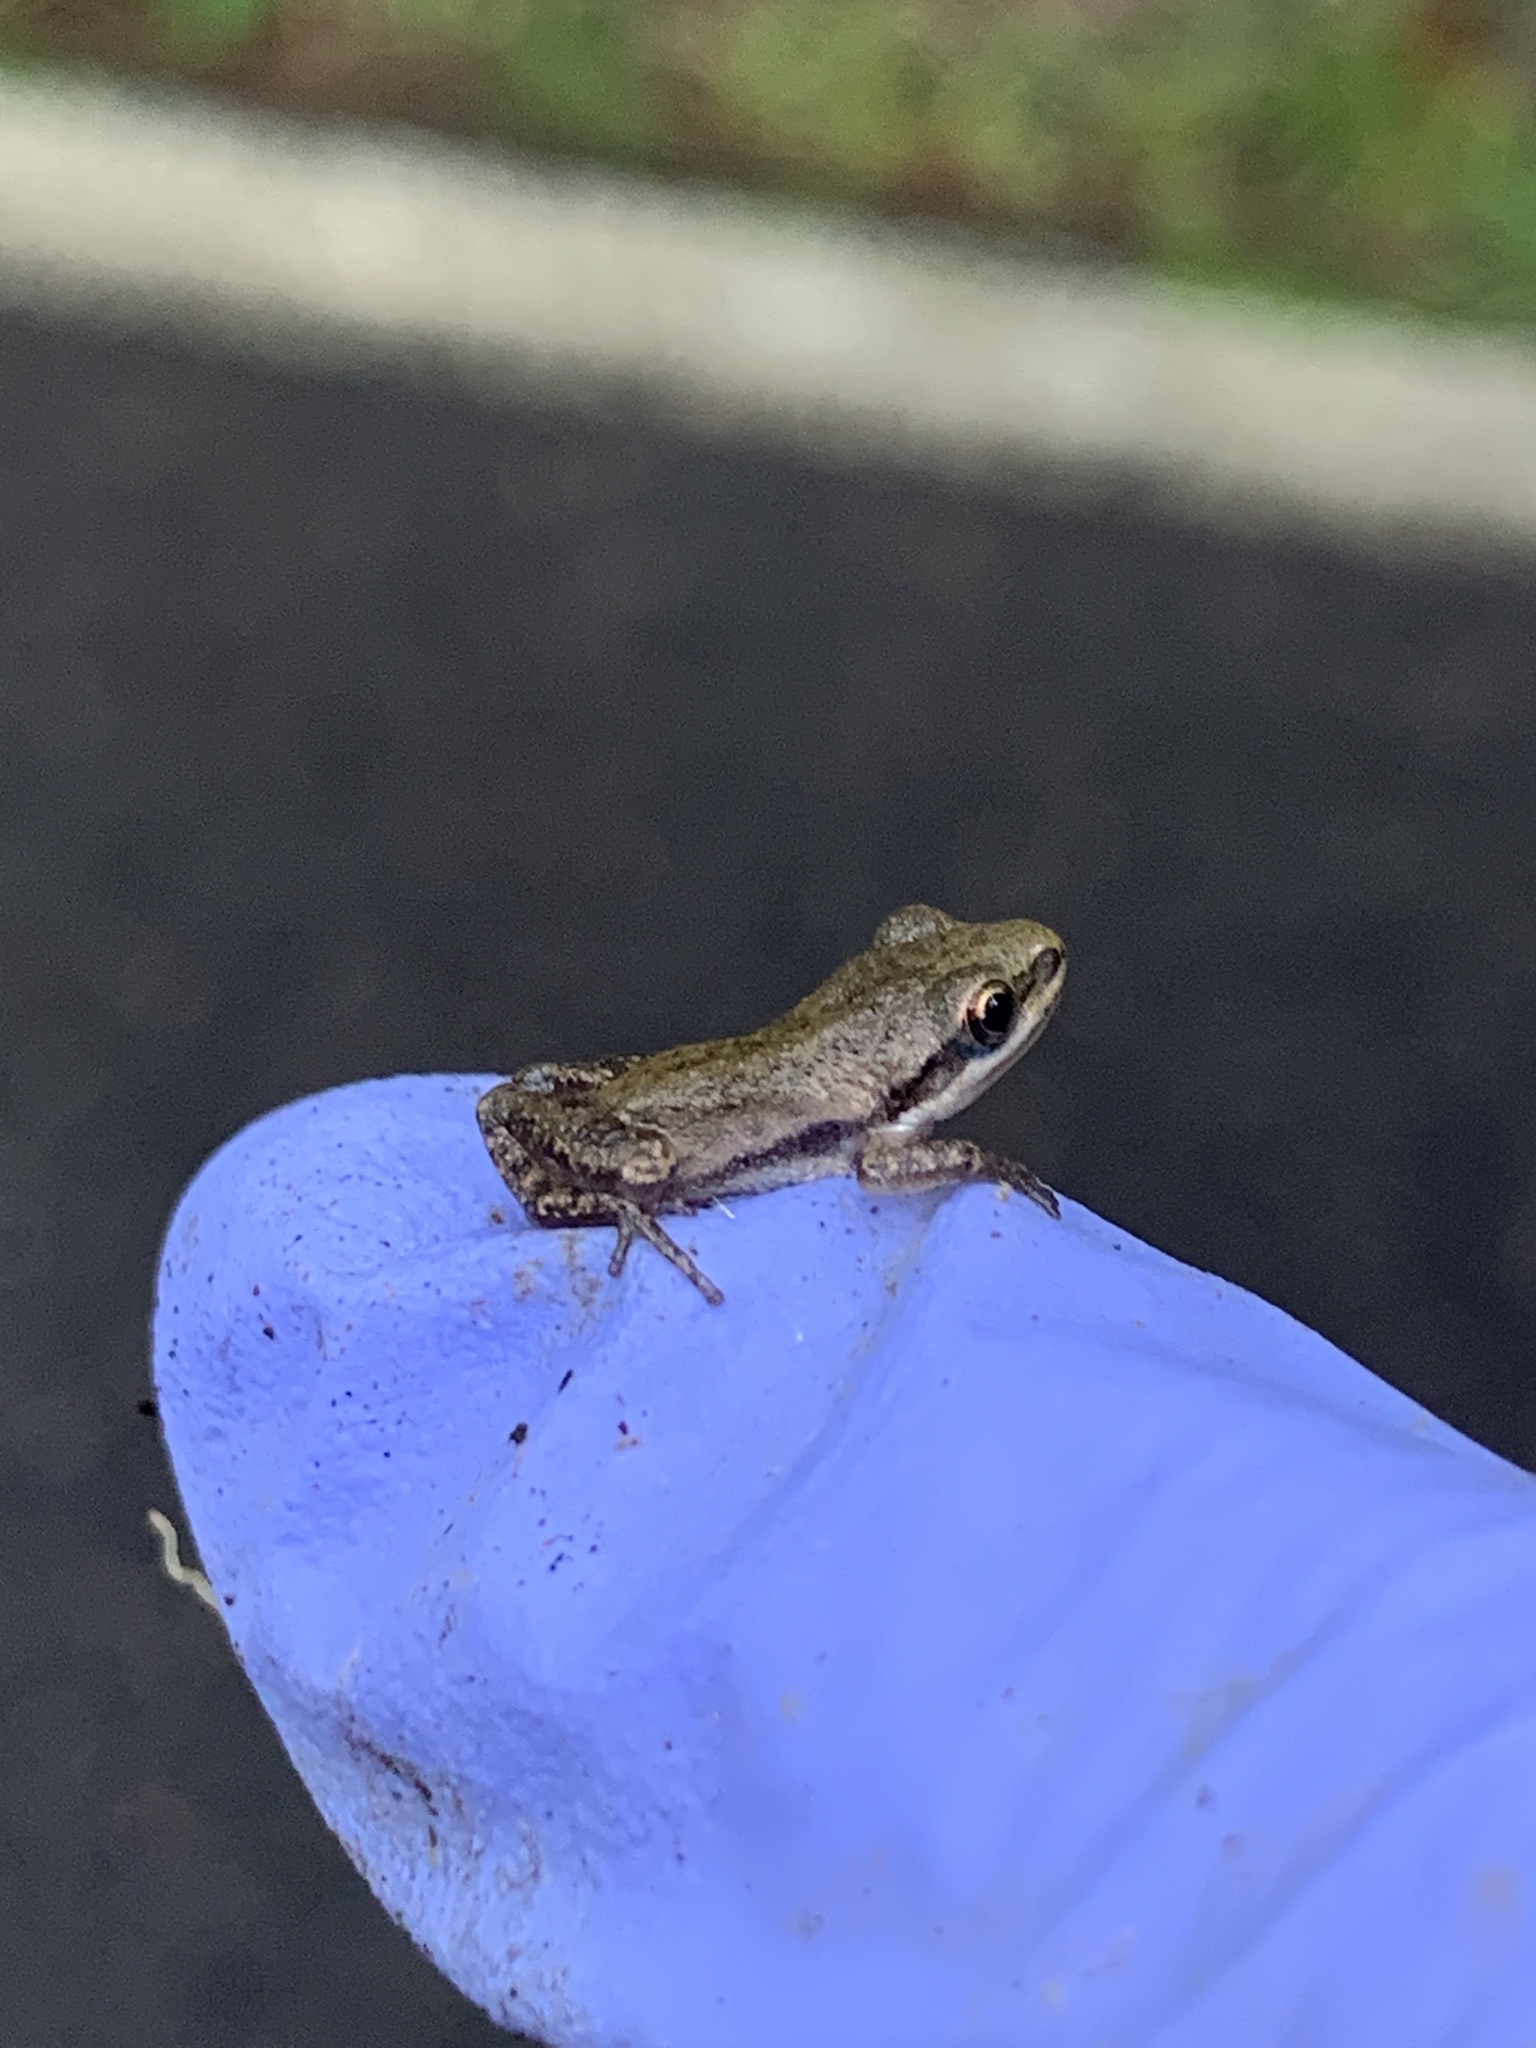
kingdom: Animalia
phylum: Chordata
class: Amphibia
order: Anura
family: Hylidae
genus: Pseudacris
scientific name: Pseudacris feriarum
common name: Upland chorus frog
